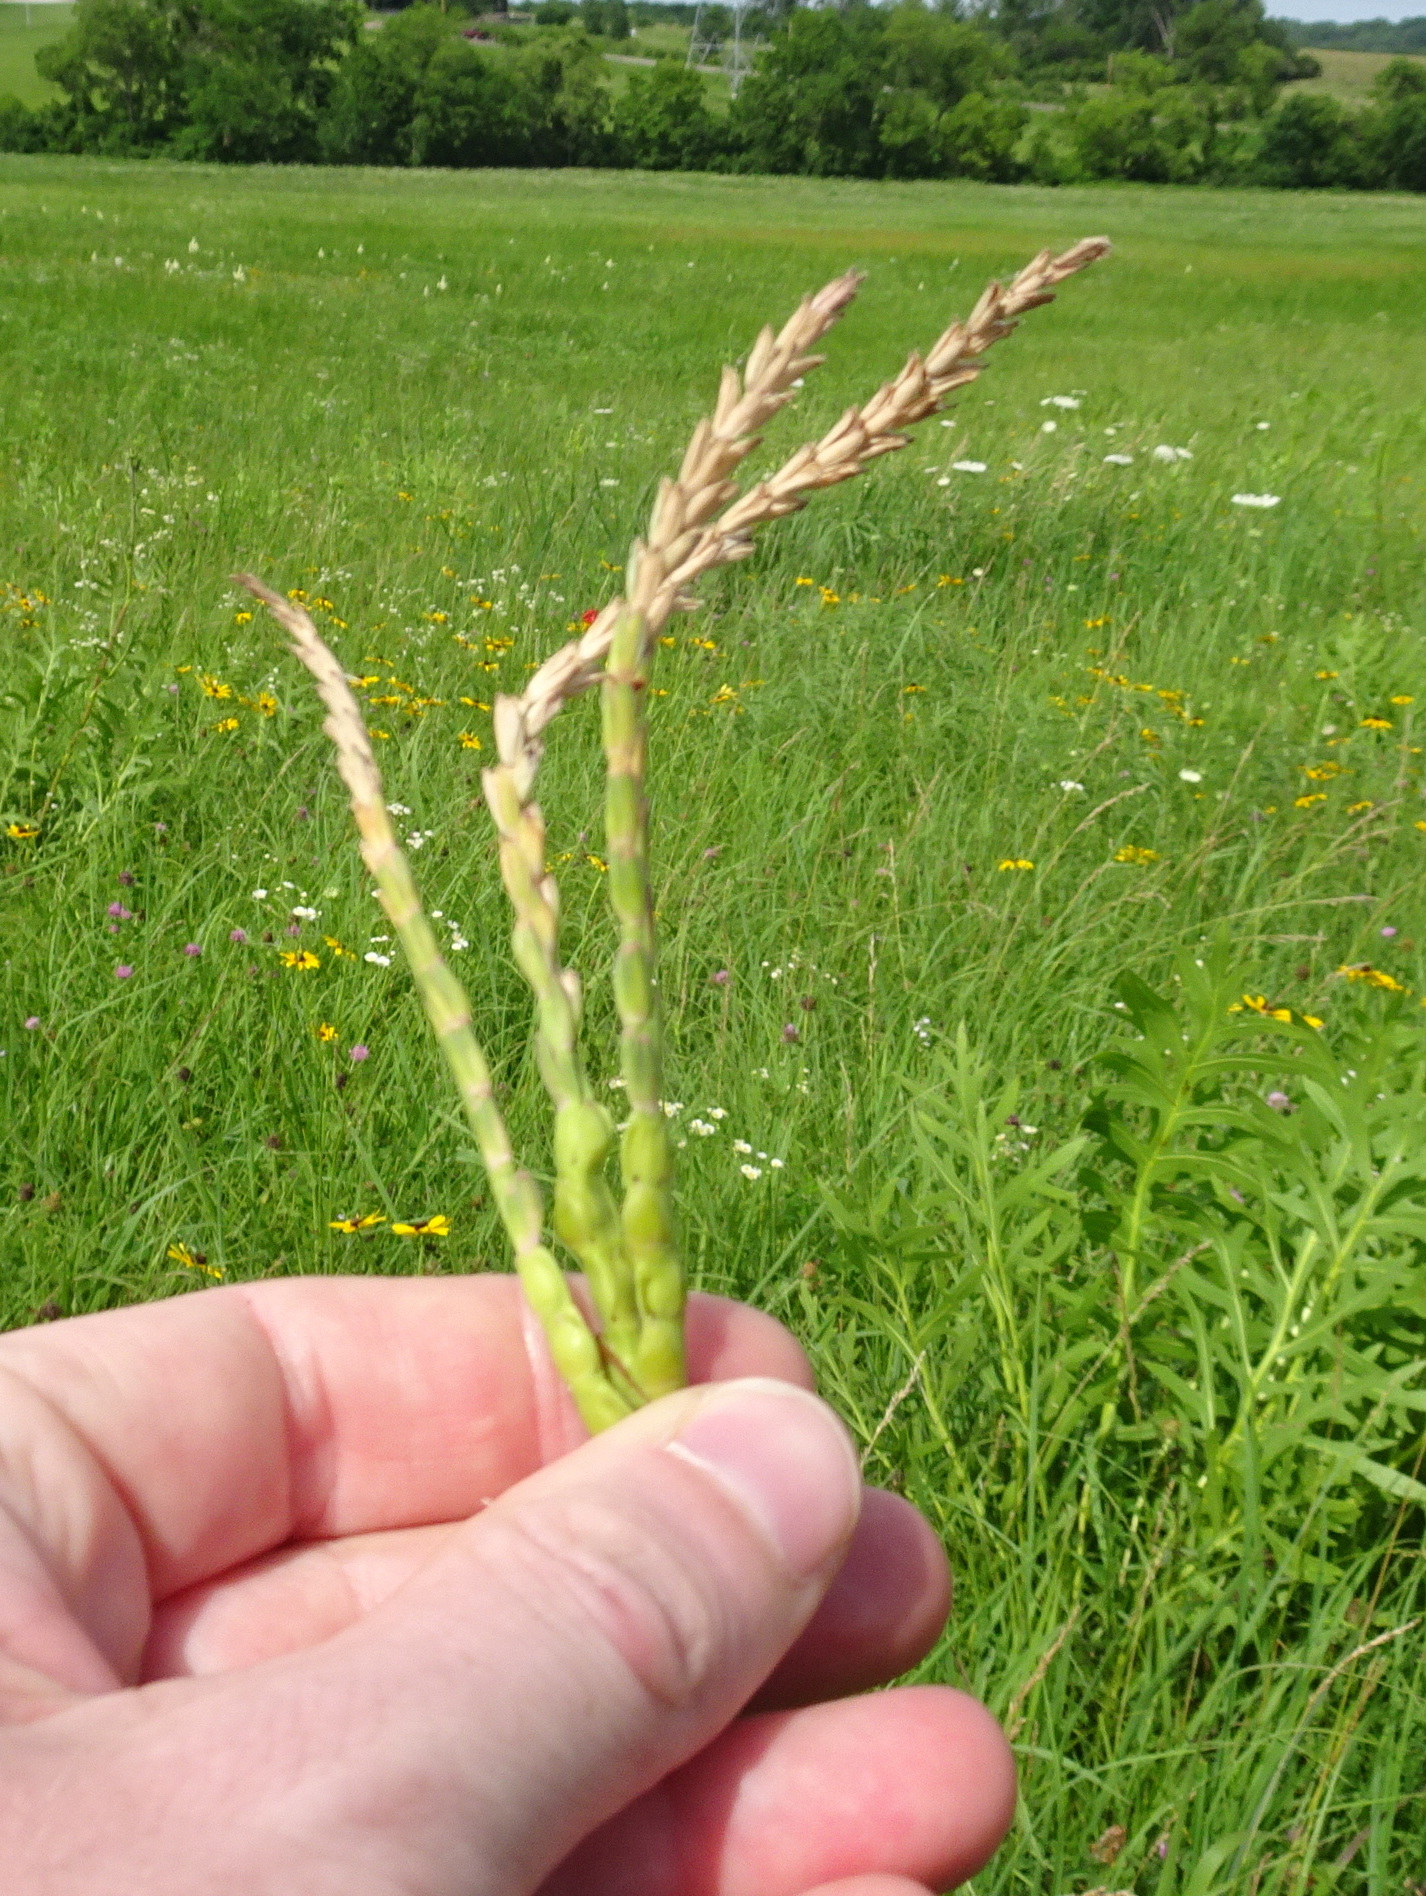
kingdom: Plantae
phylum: Tracheophyta
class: Liliopsida
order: Poales
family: Poaceae
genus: Tripsacum
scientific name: Tripsacum dactyloides
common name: Buffalo-grass
